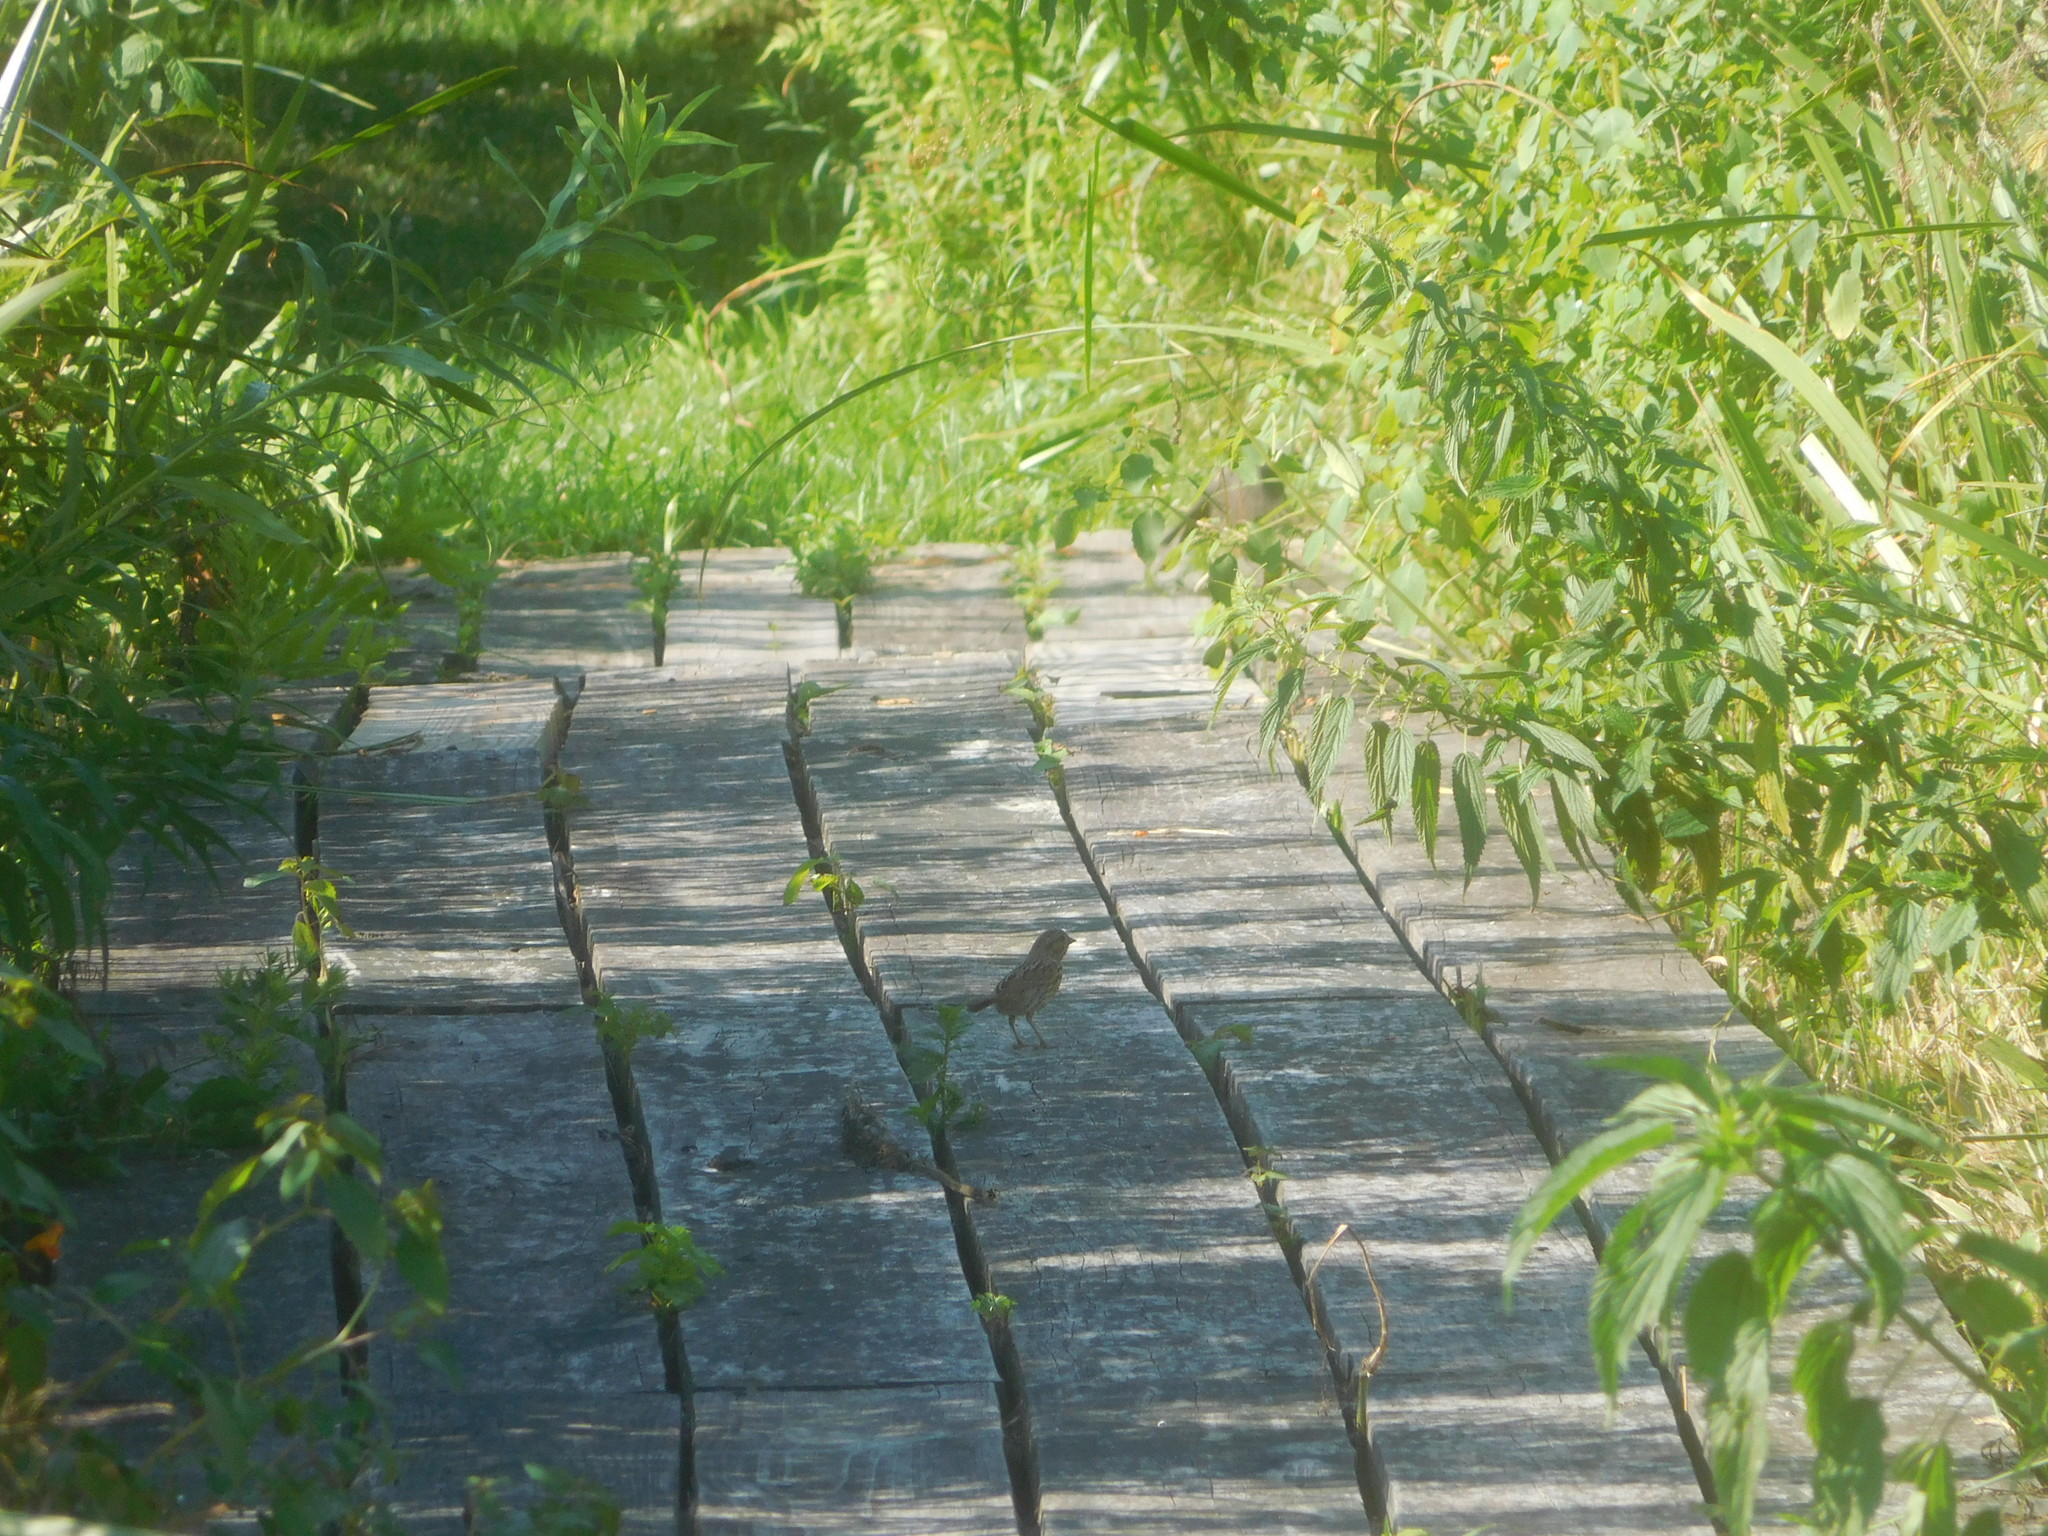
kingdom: Animalia
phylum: Chordata
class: Aves
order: Passeriformes
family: Passerellidae
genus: Melospiza
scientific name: Melospiza melodia
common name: Song sparrow
